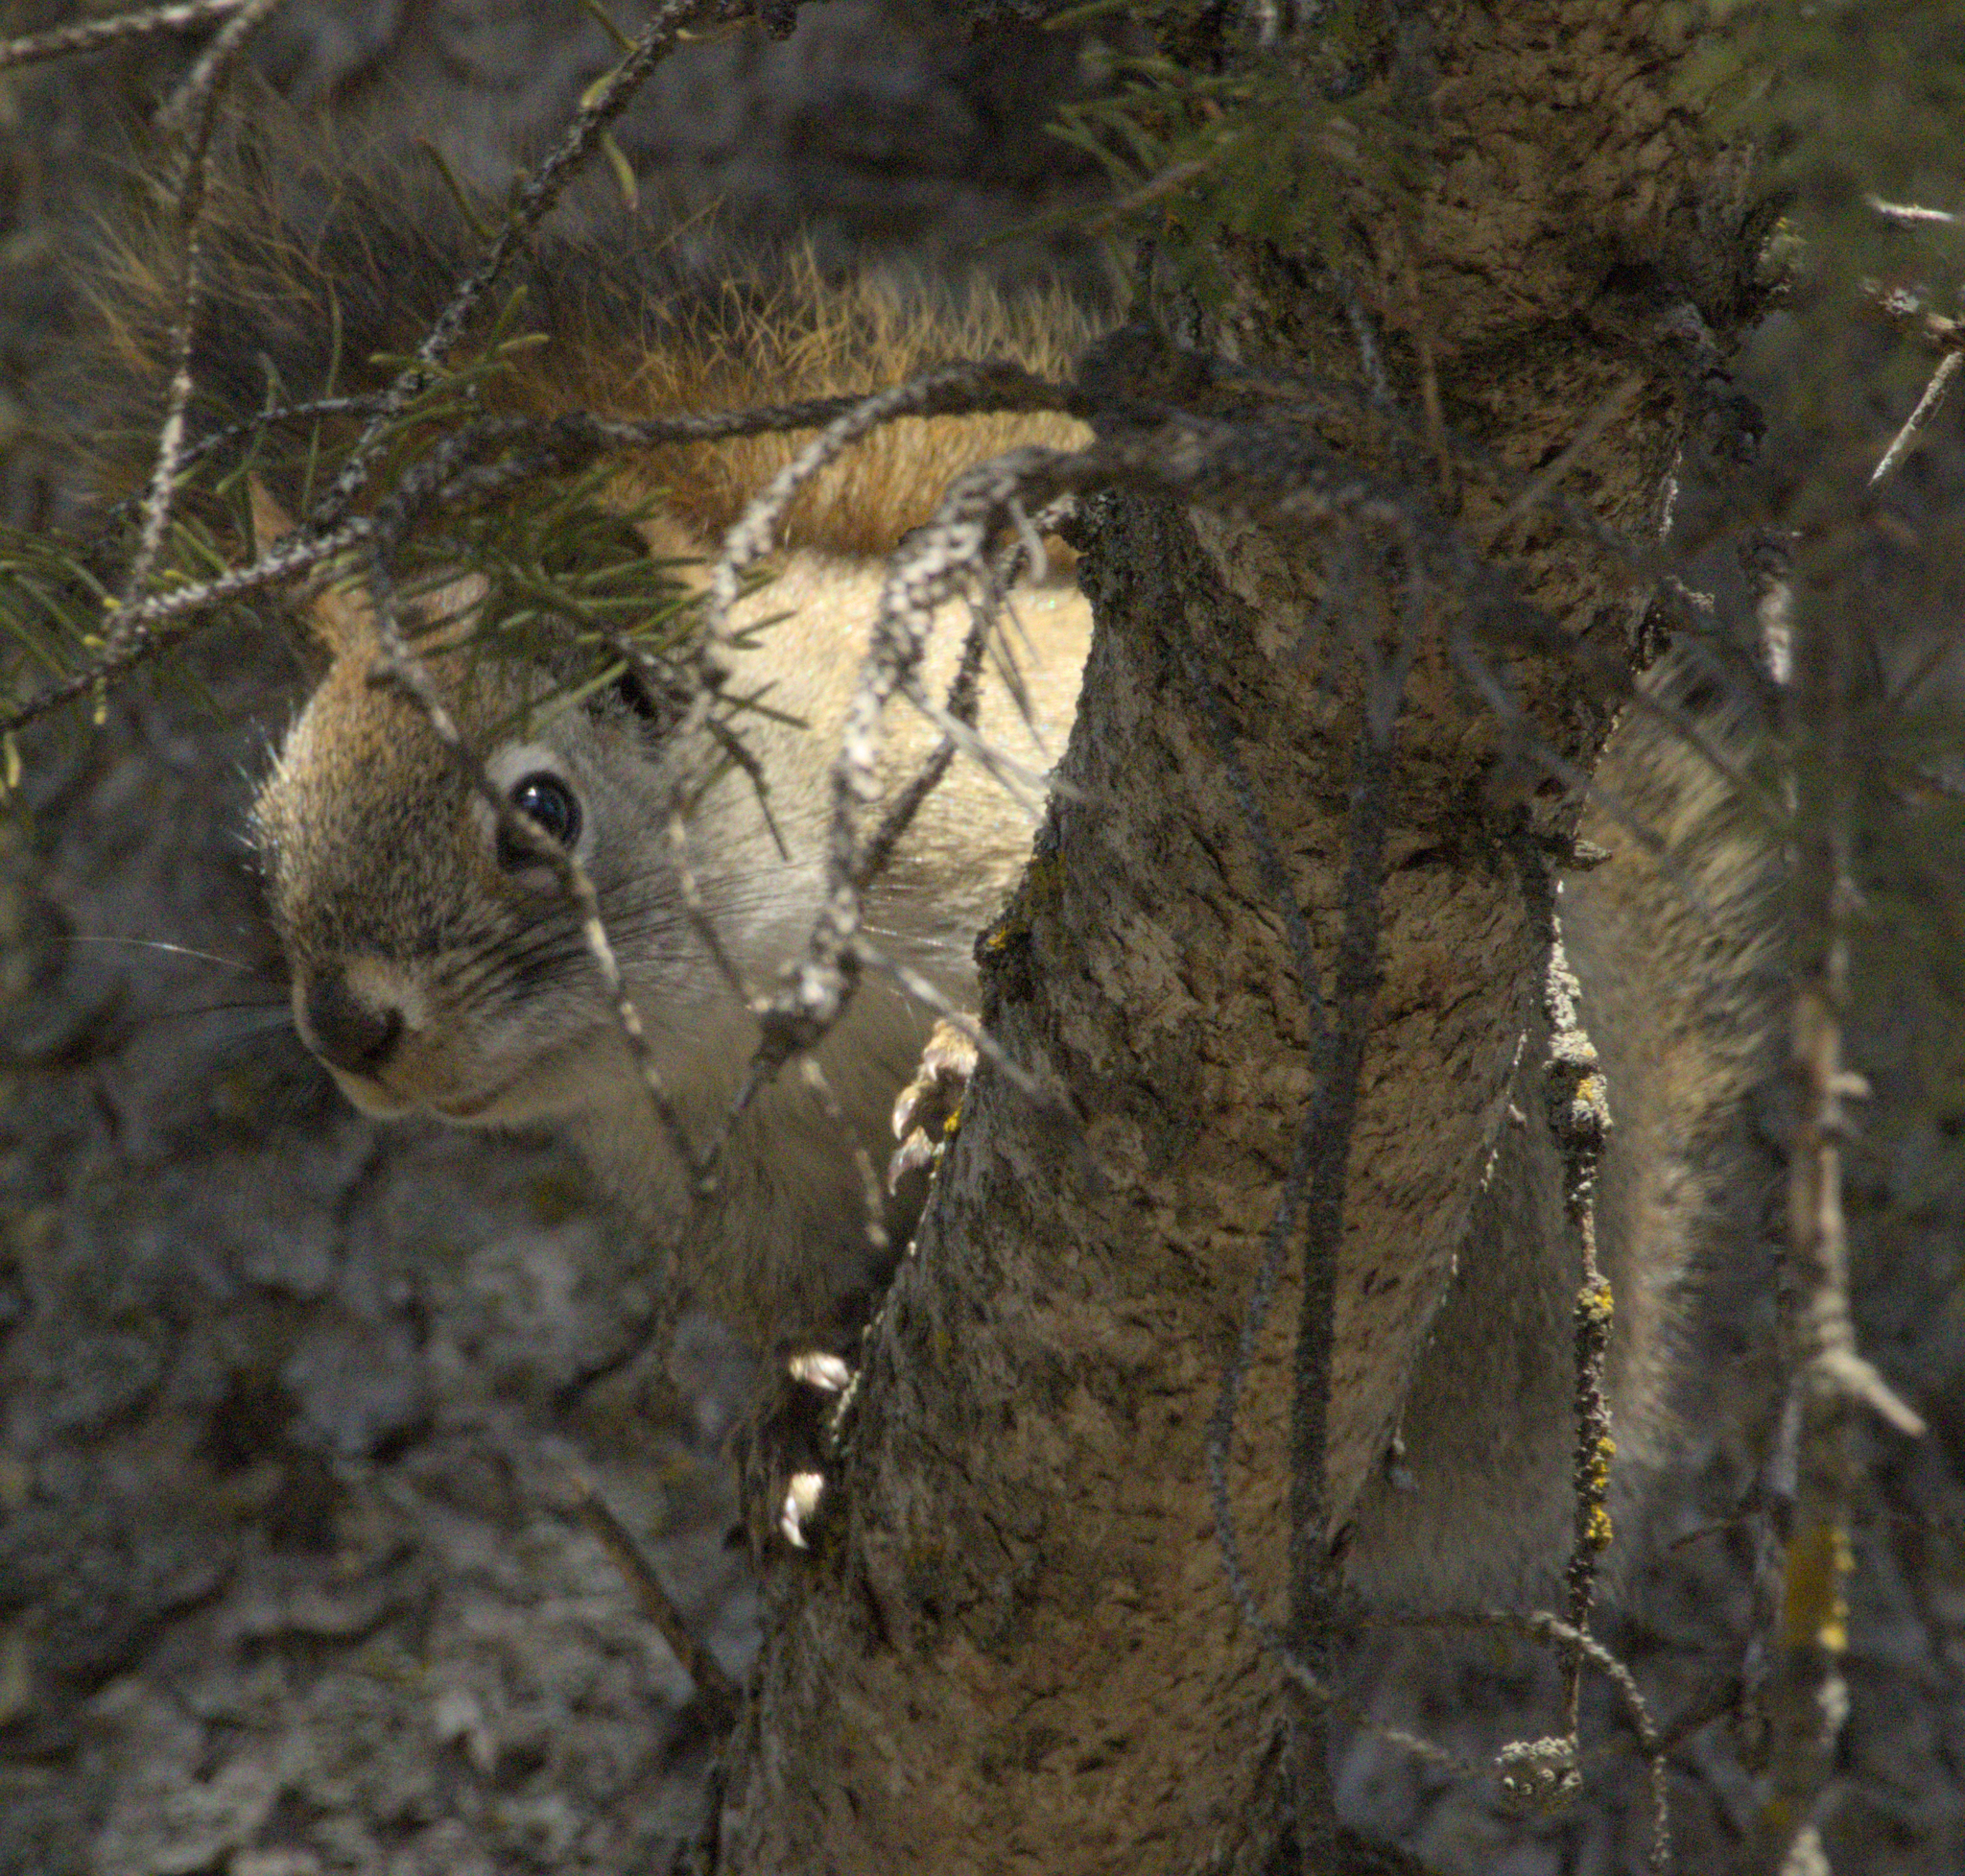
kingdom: Animalia
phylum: Chordata
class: Mammalia
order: Rodentia
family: Sciuridae
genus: Tamiasciurus
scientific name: Tamiasciurus hudsonicus
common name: Red squirrel
